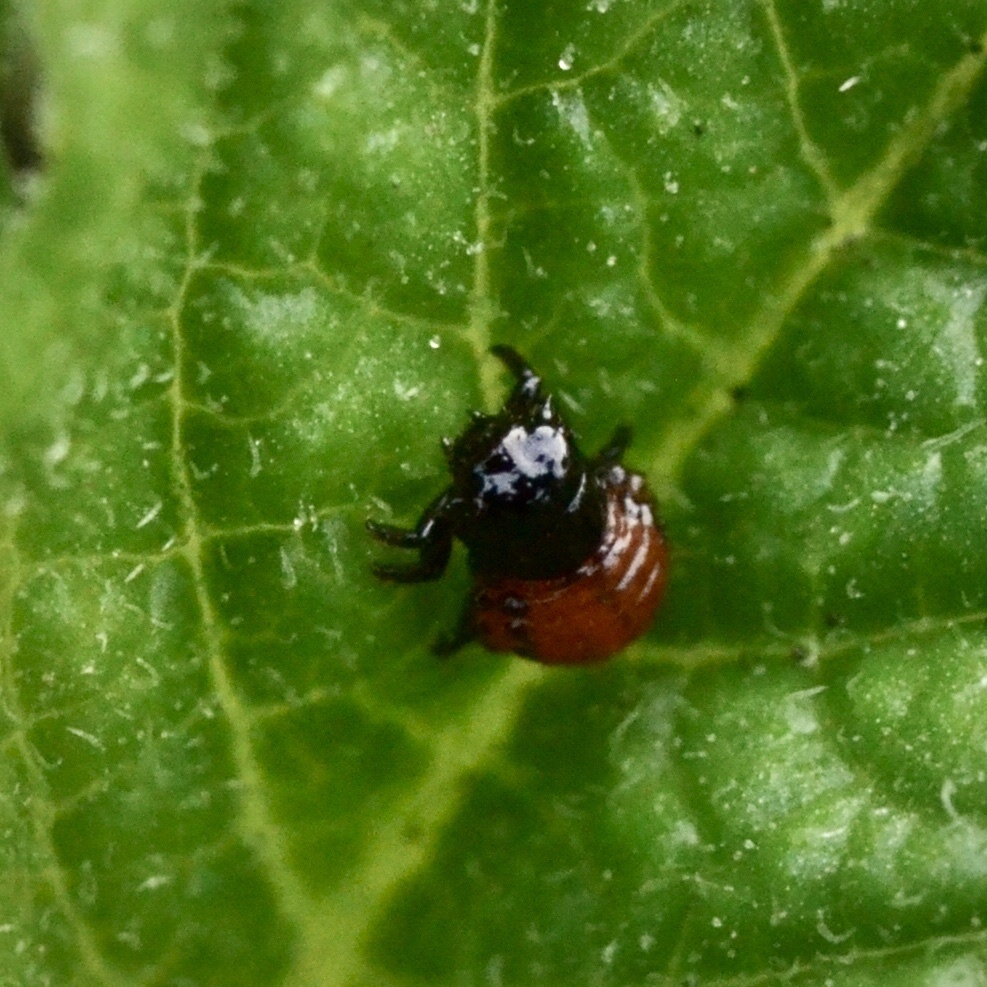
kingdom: Animalia
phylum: Arthropoda
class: Insecta
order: Coleoptera
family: Chrysomelidae
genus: Leptinotarsa
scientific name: Leptinotarsa decemlineata
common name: Colorado potato beetle
